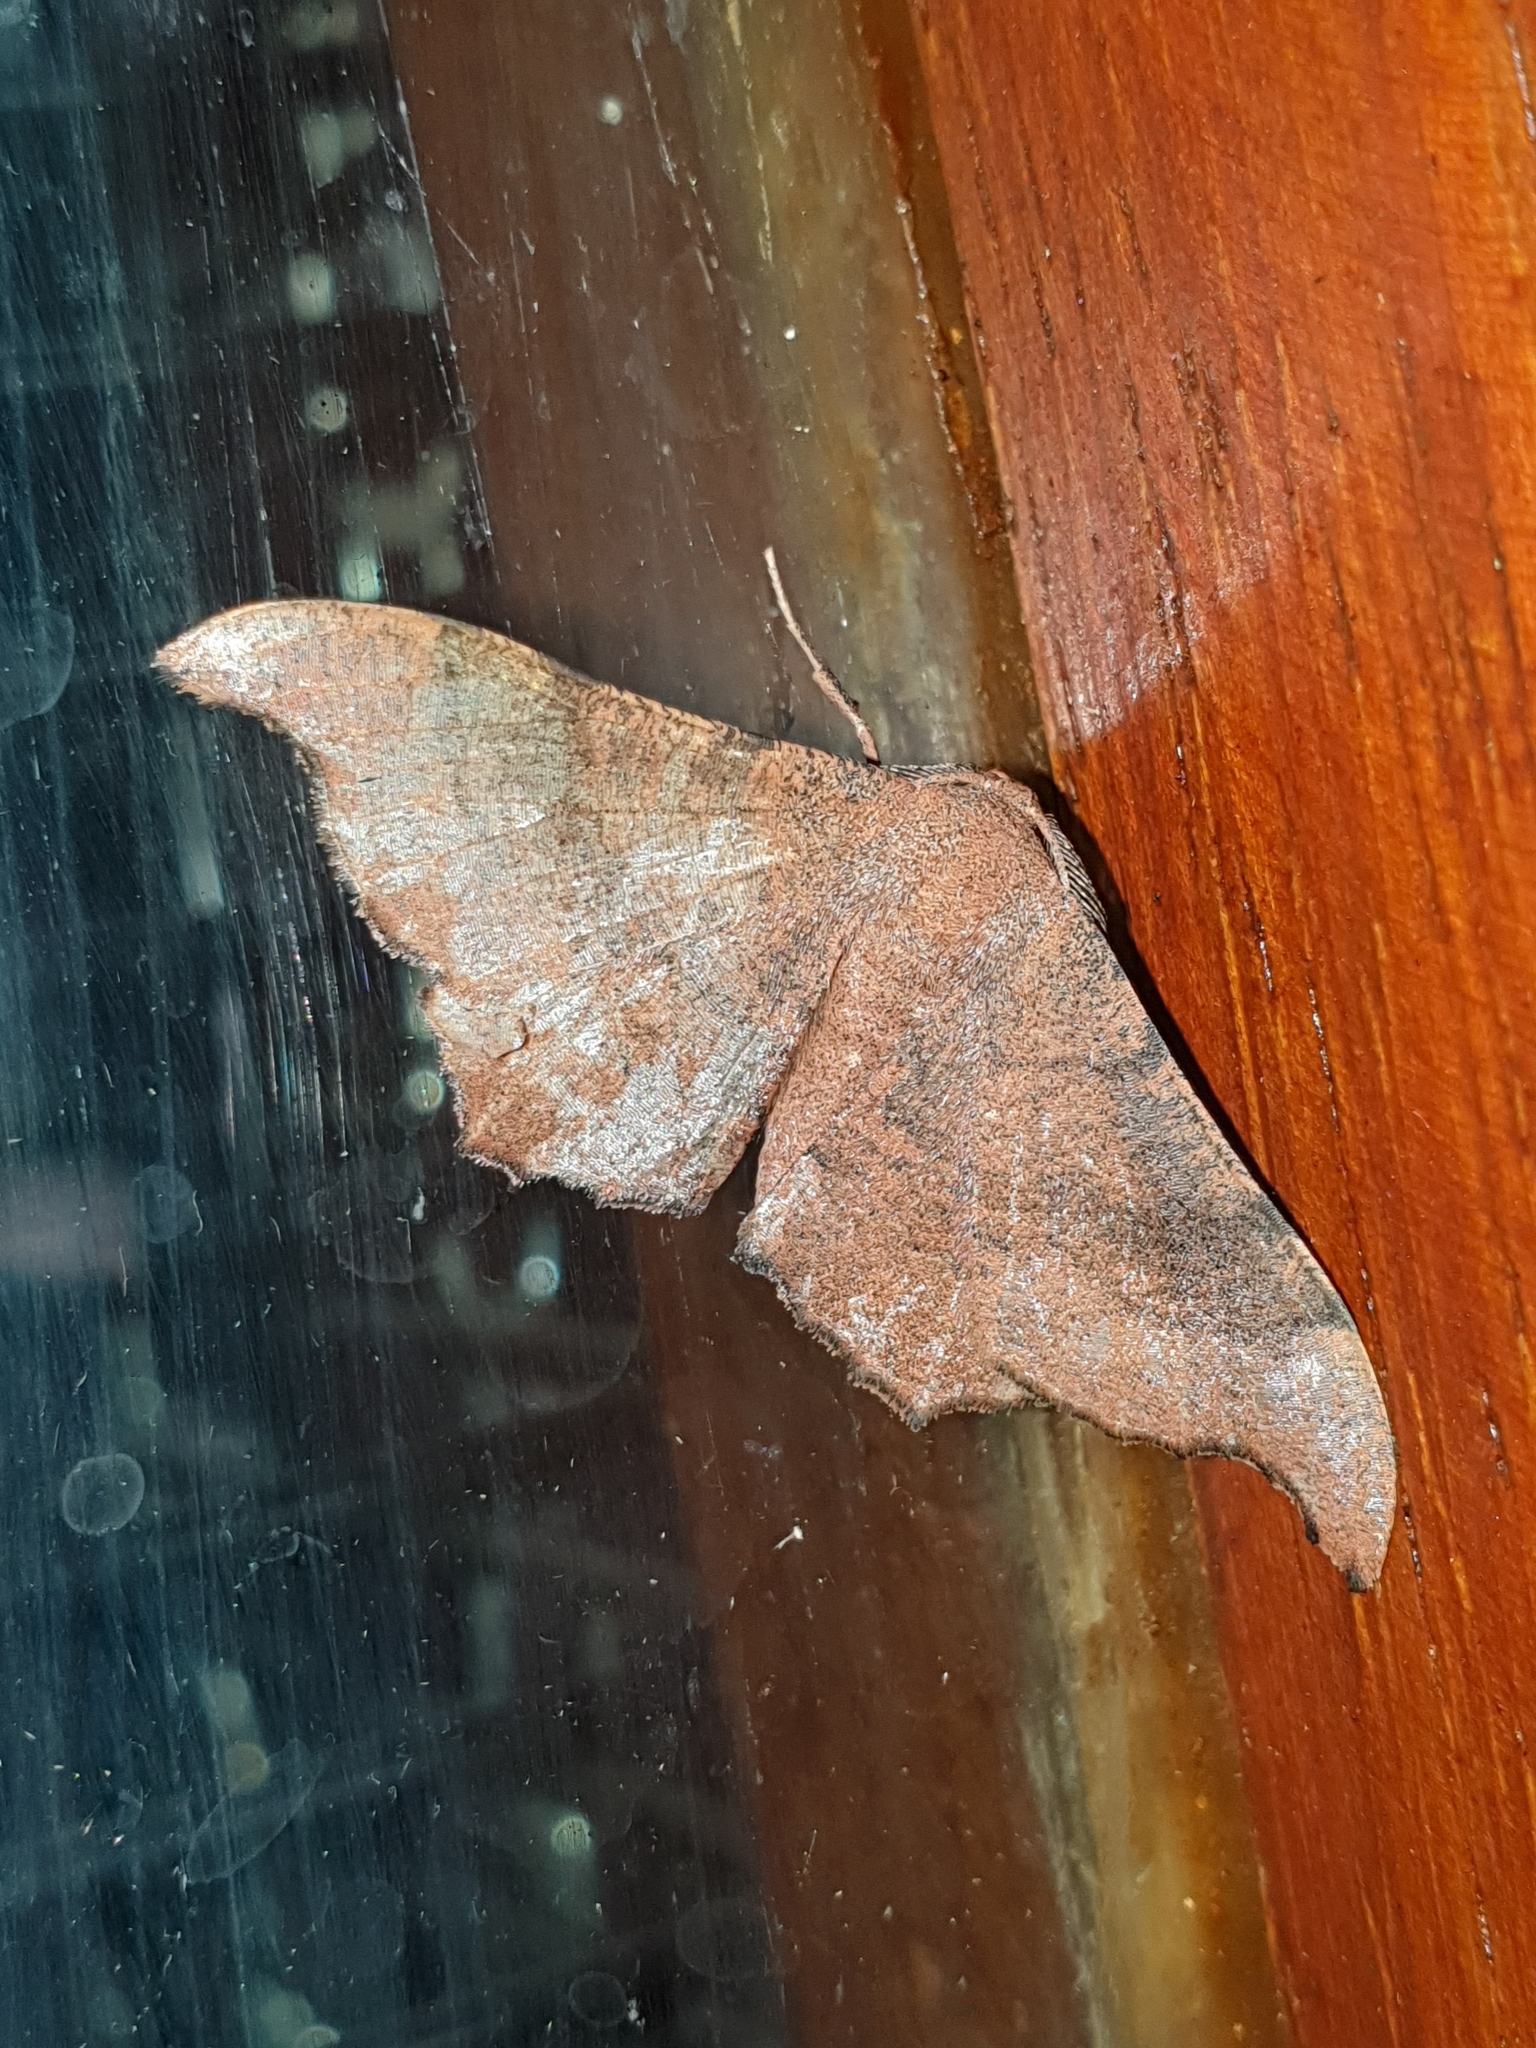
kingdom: Animalia
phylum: Arthropoda
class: Insecta
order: Lepidoptera
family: Geometridae
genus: Hyposidra
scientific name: Hyposidra talaca
